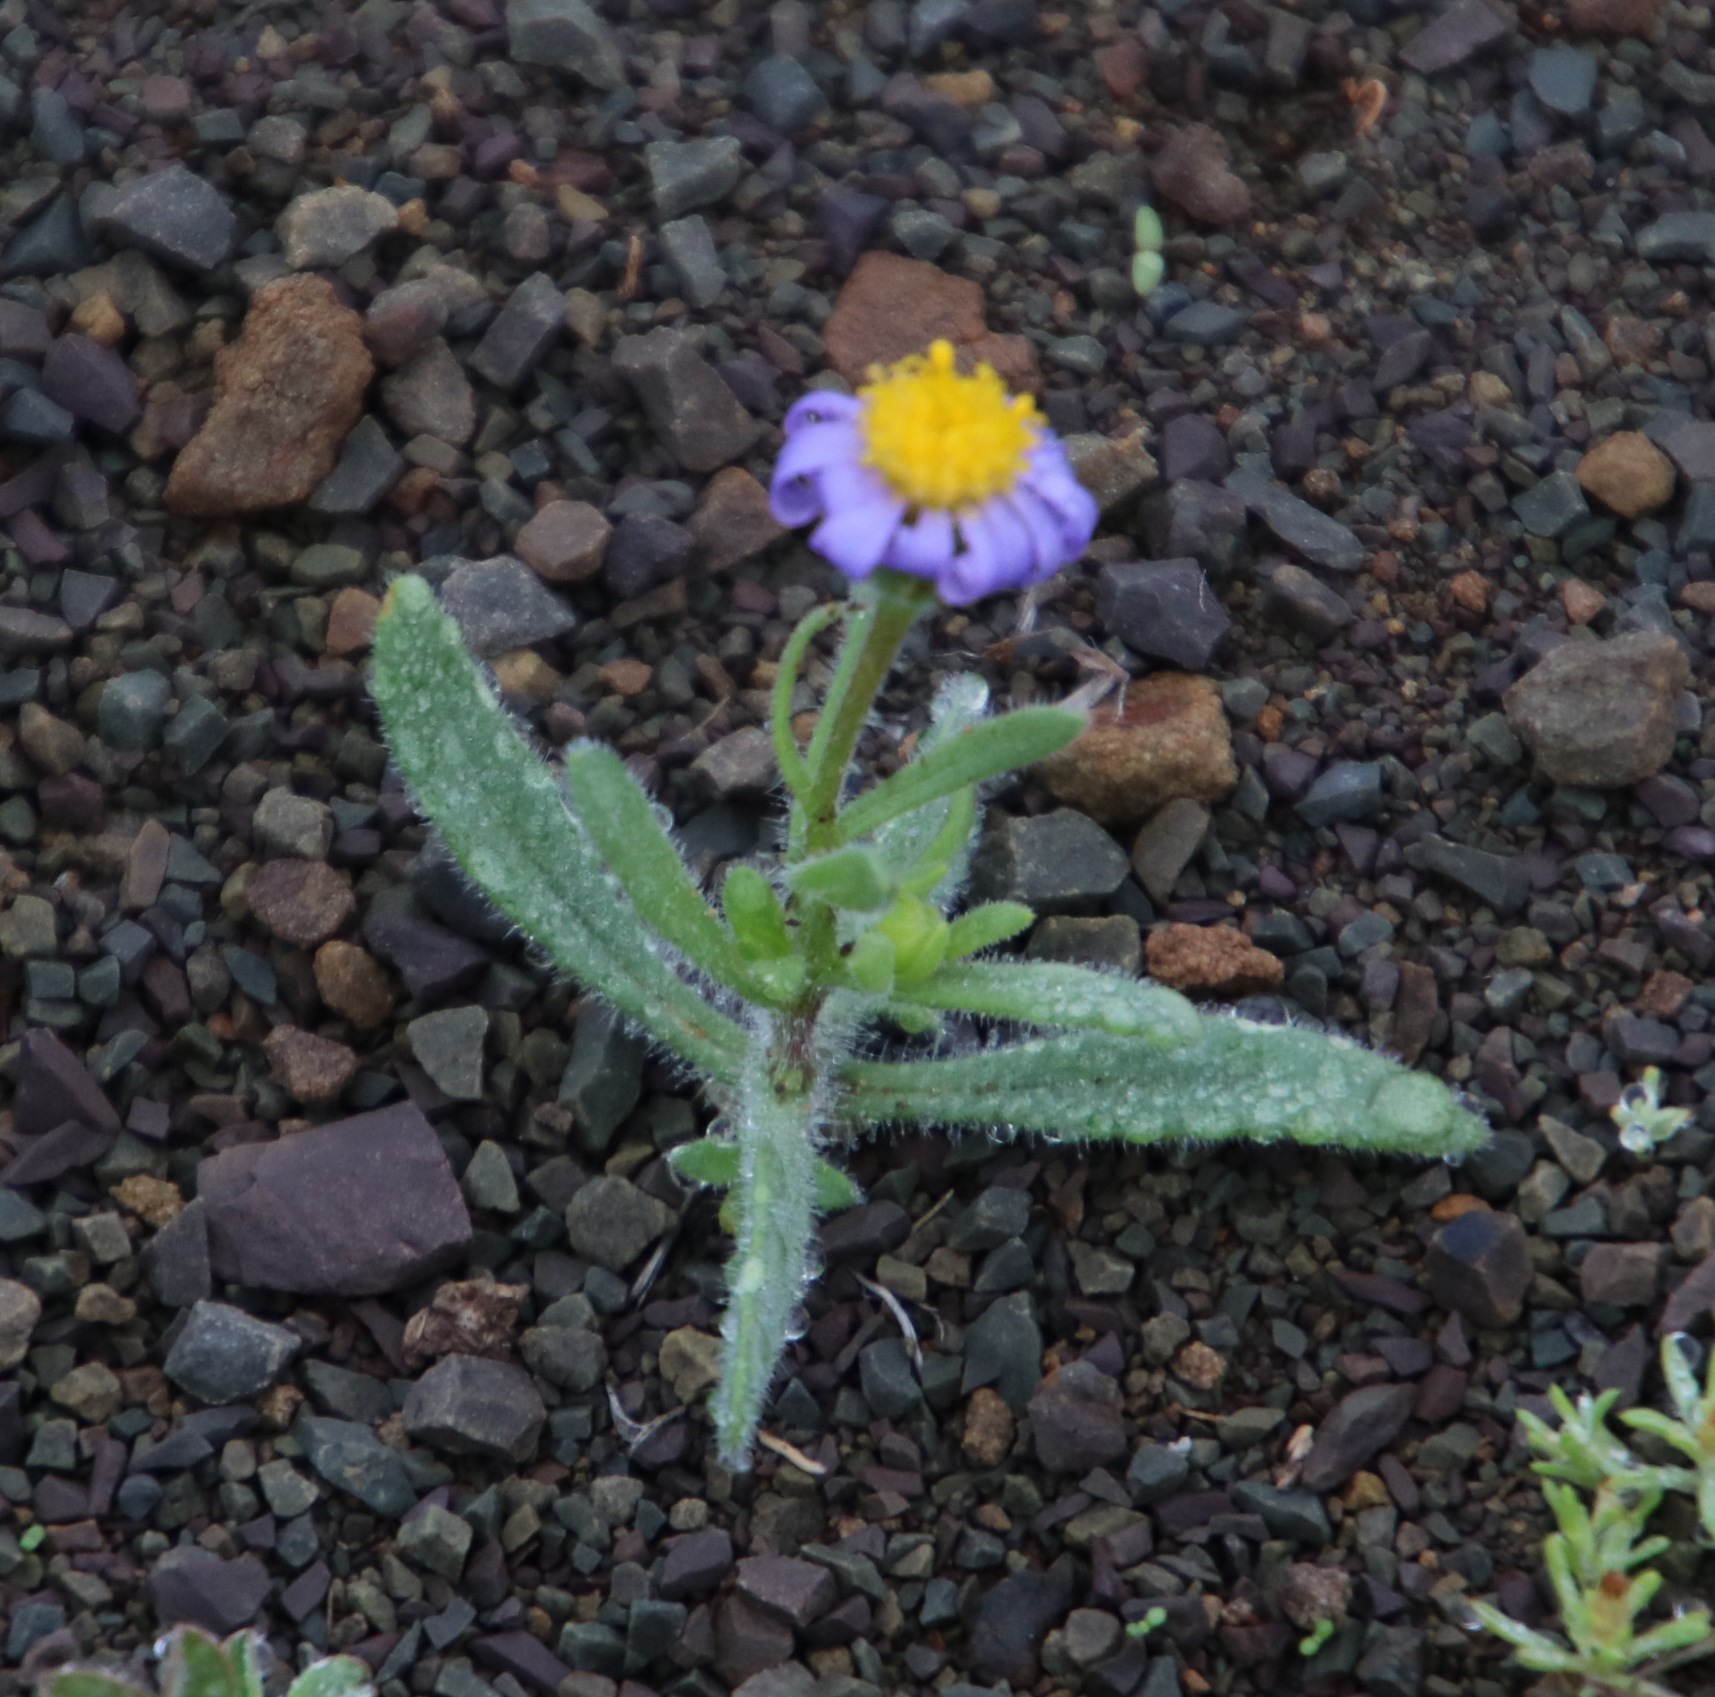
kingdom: Plantae
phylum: Tracheophyta
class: Magnoliopsida
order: Asterales
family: Asteraceae
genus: Felicia
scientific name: Felicia namaquana
